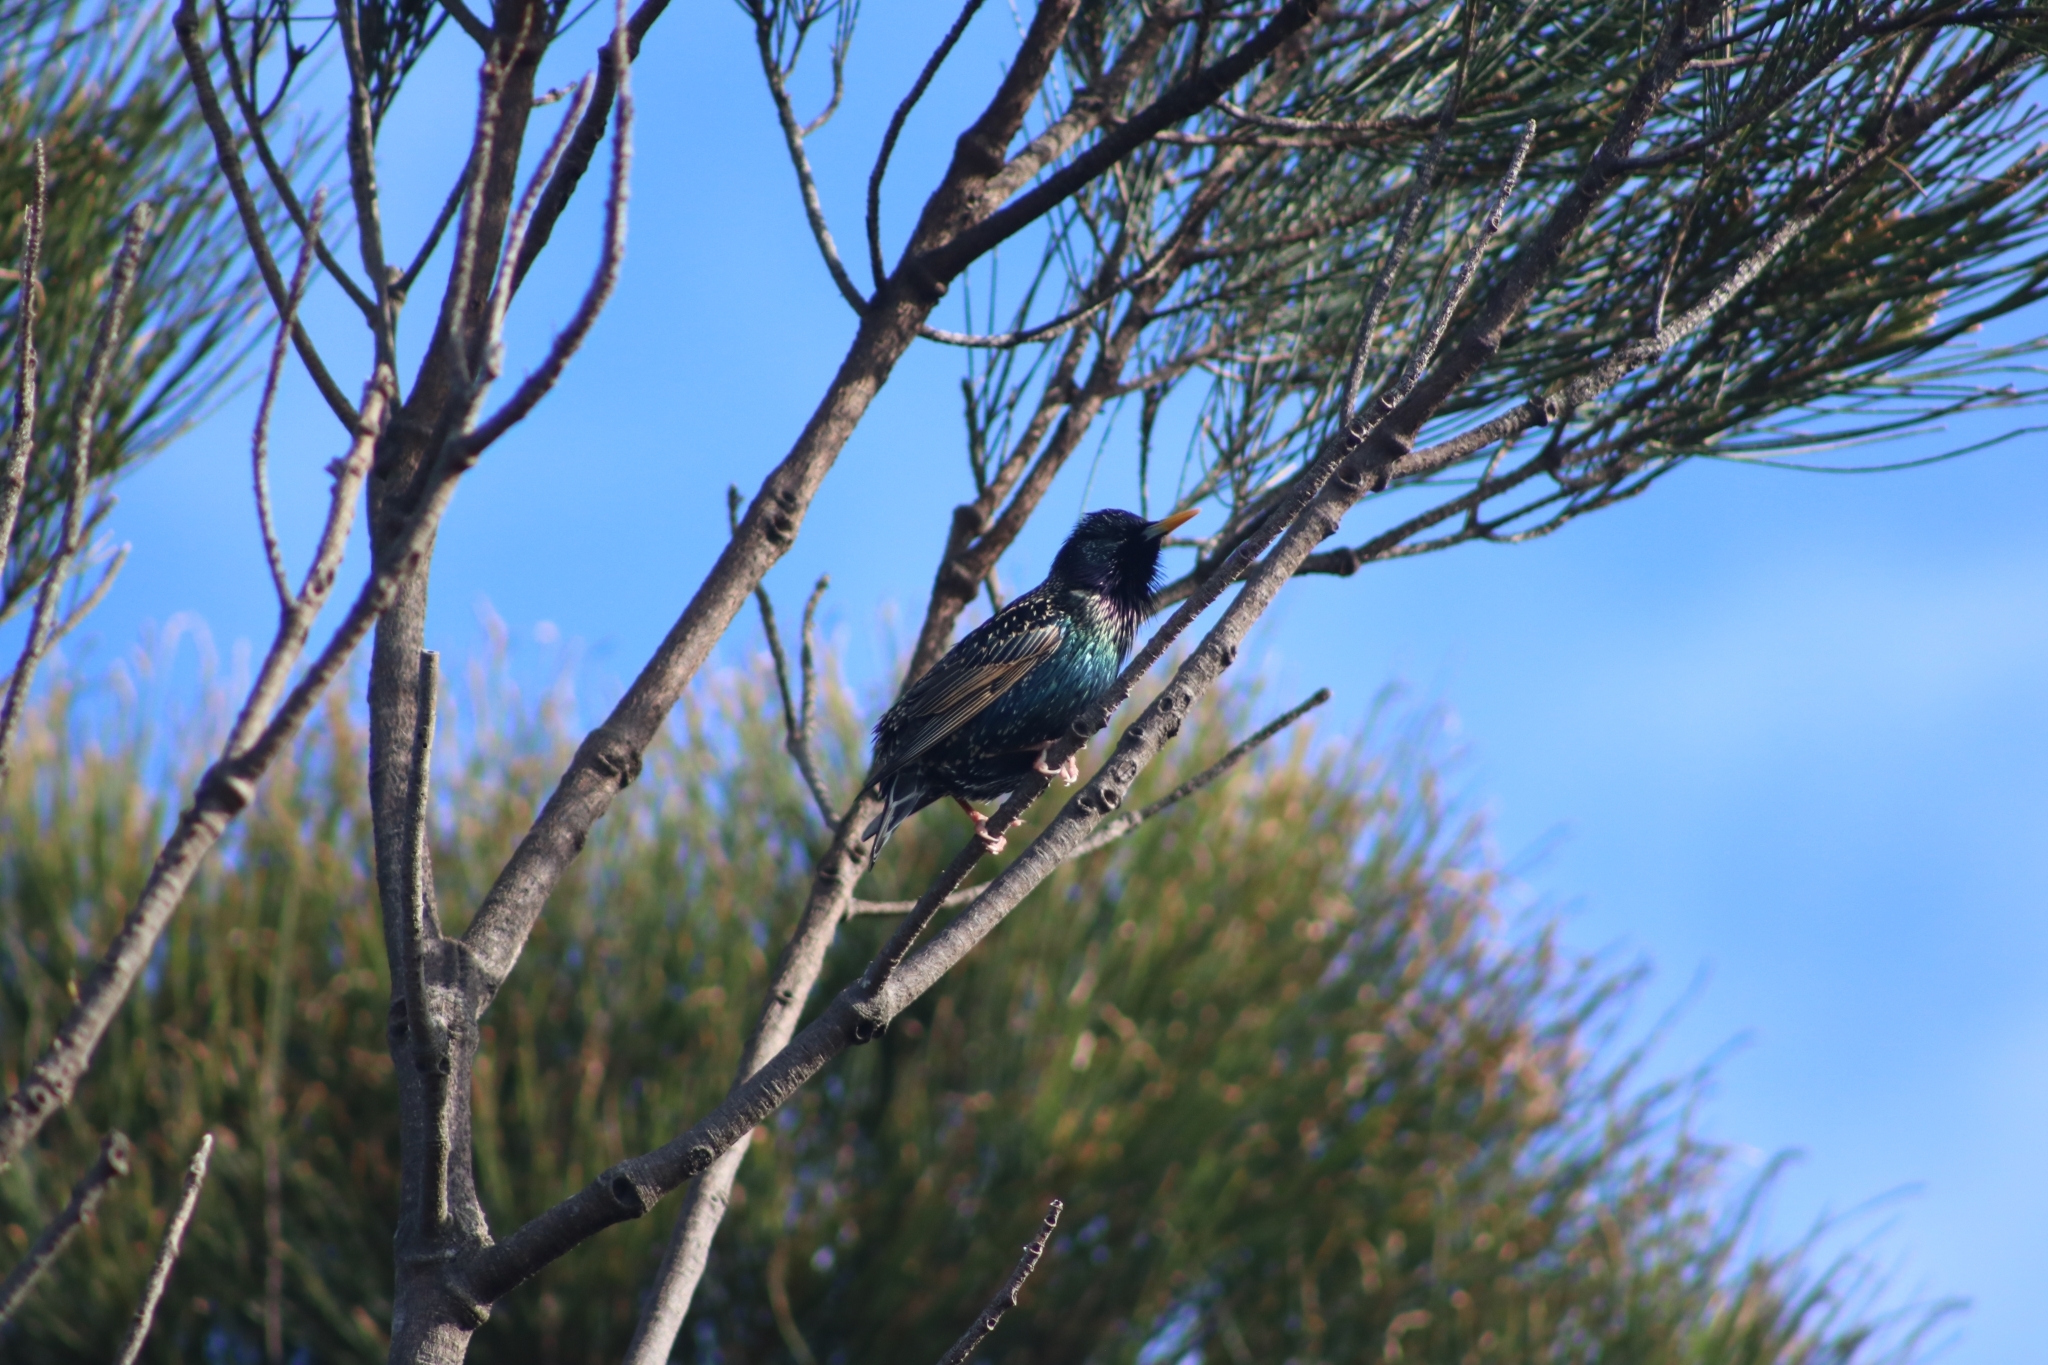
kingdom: Animalia
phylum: Chordata
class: Aves
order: Passeriformes
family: Sturnidae
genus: Sturnus
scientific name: Sturnus vulgaris
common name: Common starling
